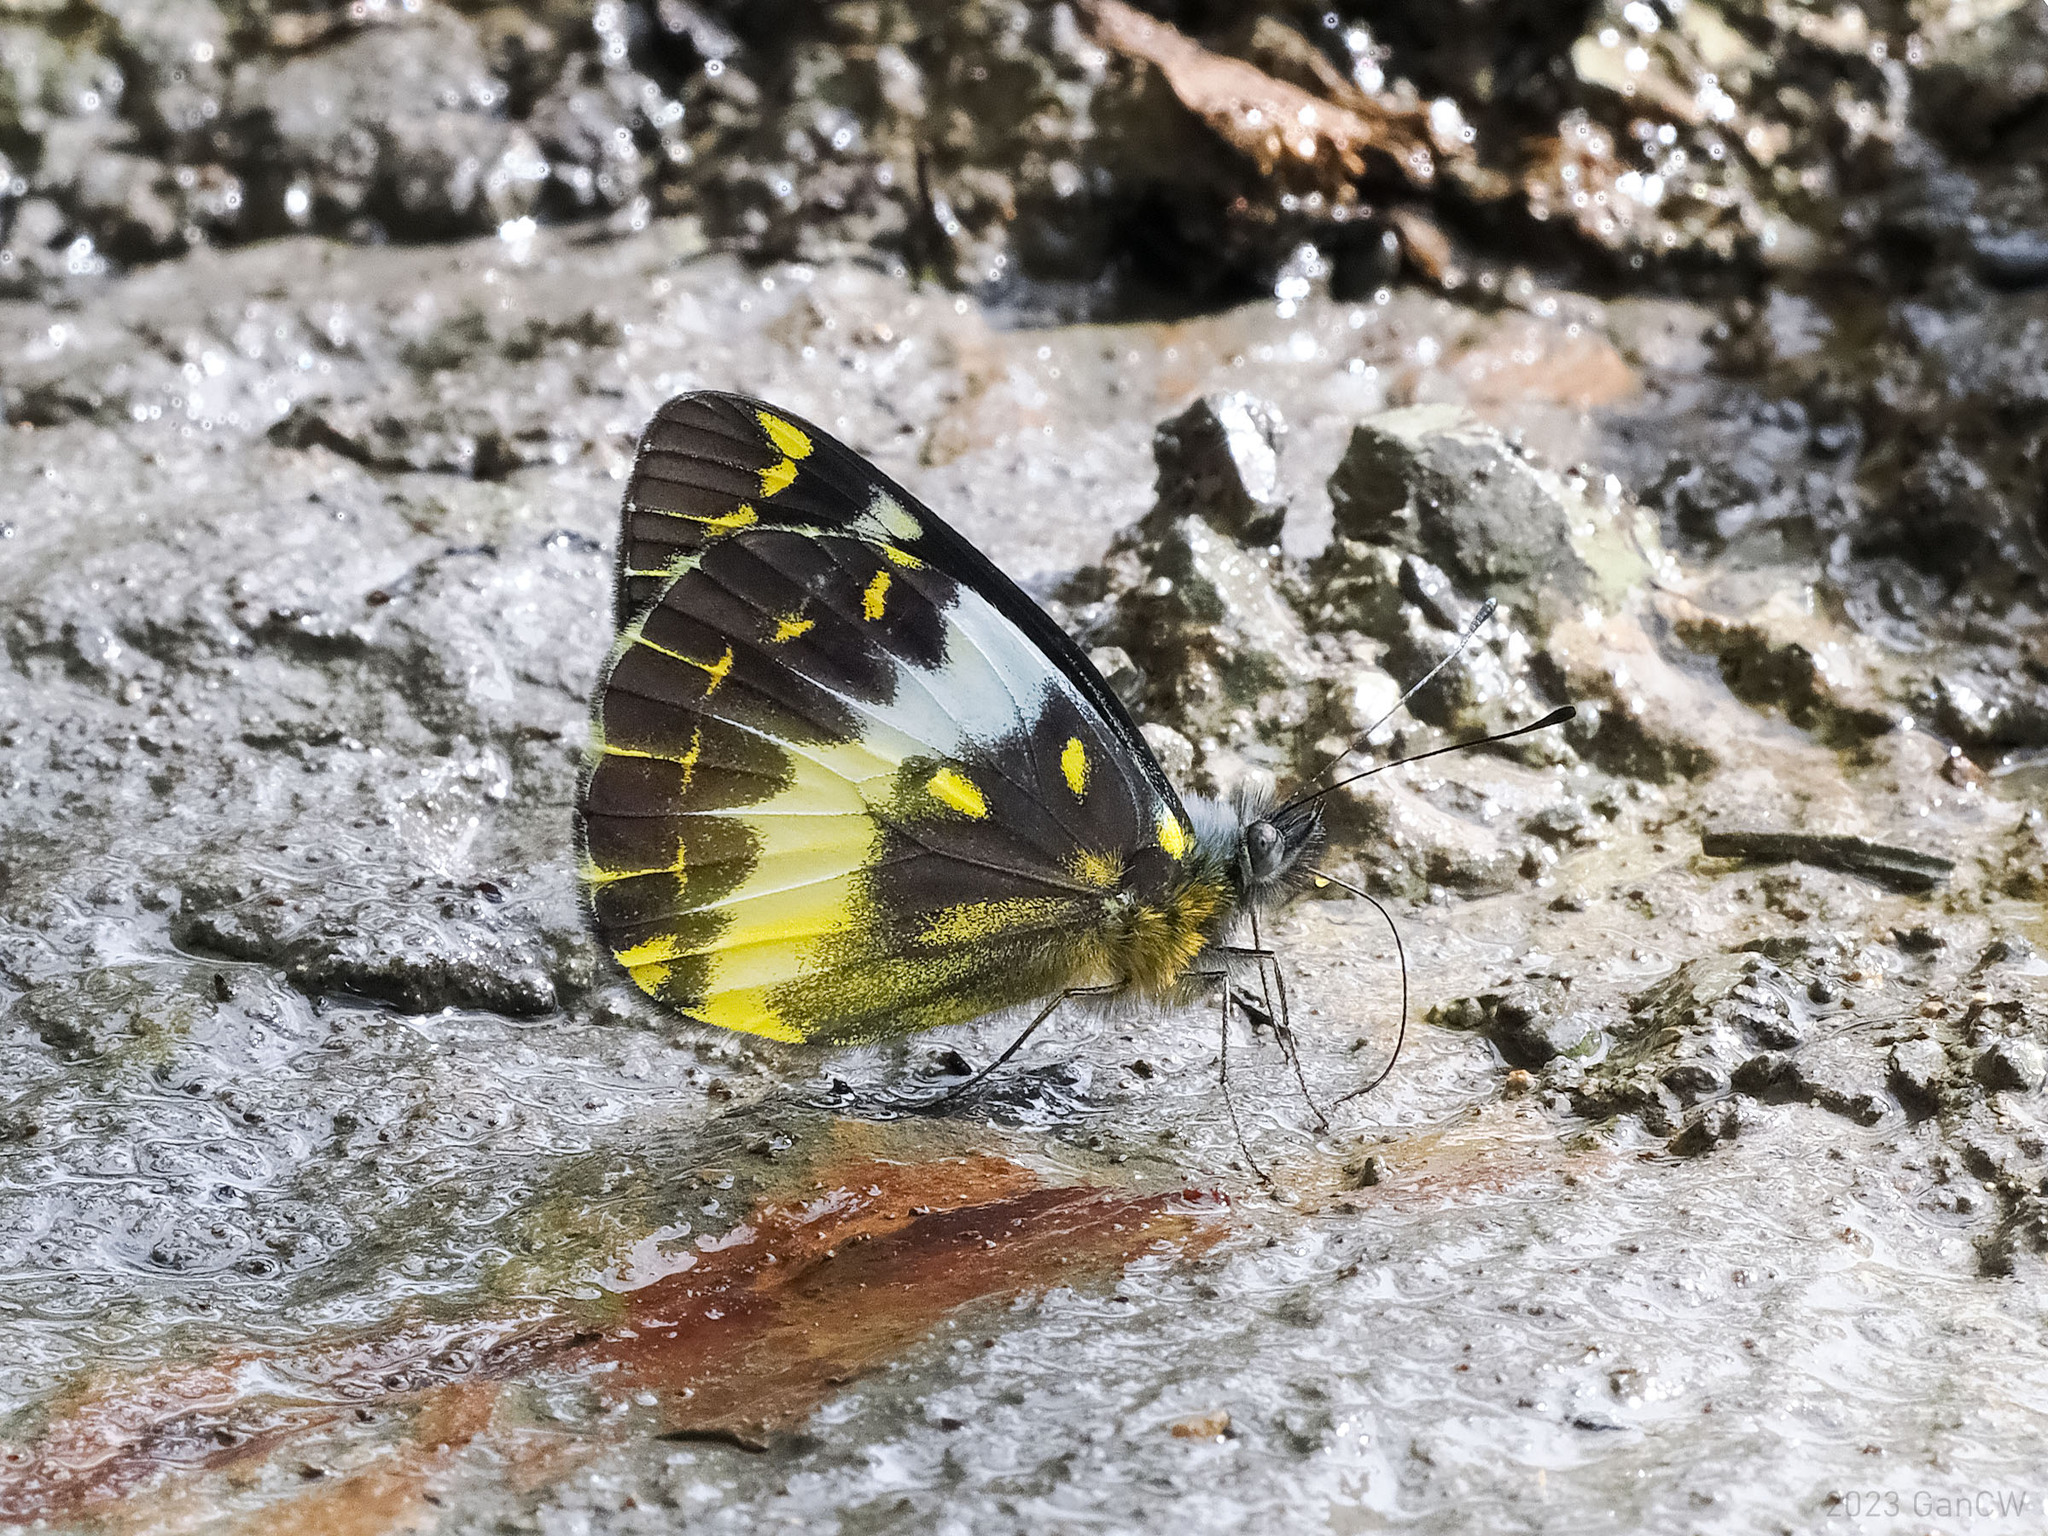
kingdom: Animalia
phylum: Arthropoda
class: Insecta
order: Lepidoptera
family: Pieridae
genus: Delias
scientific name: Delias fascelis
